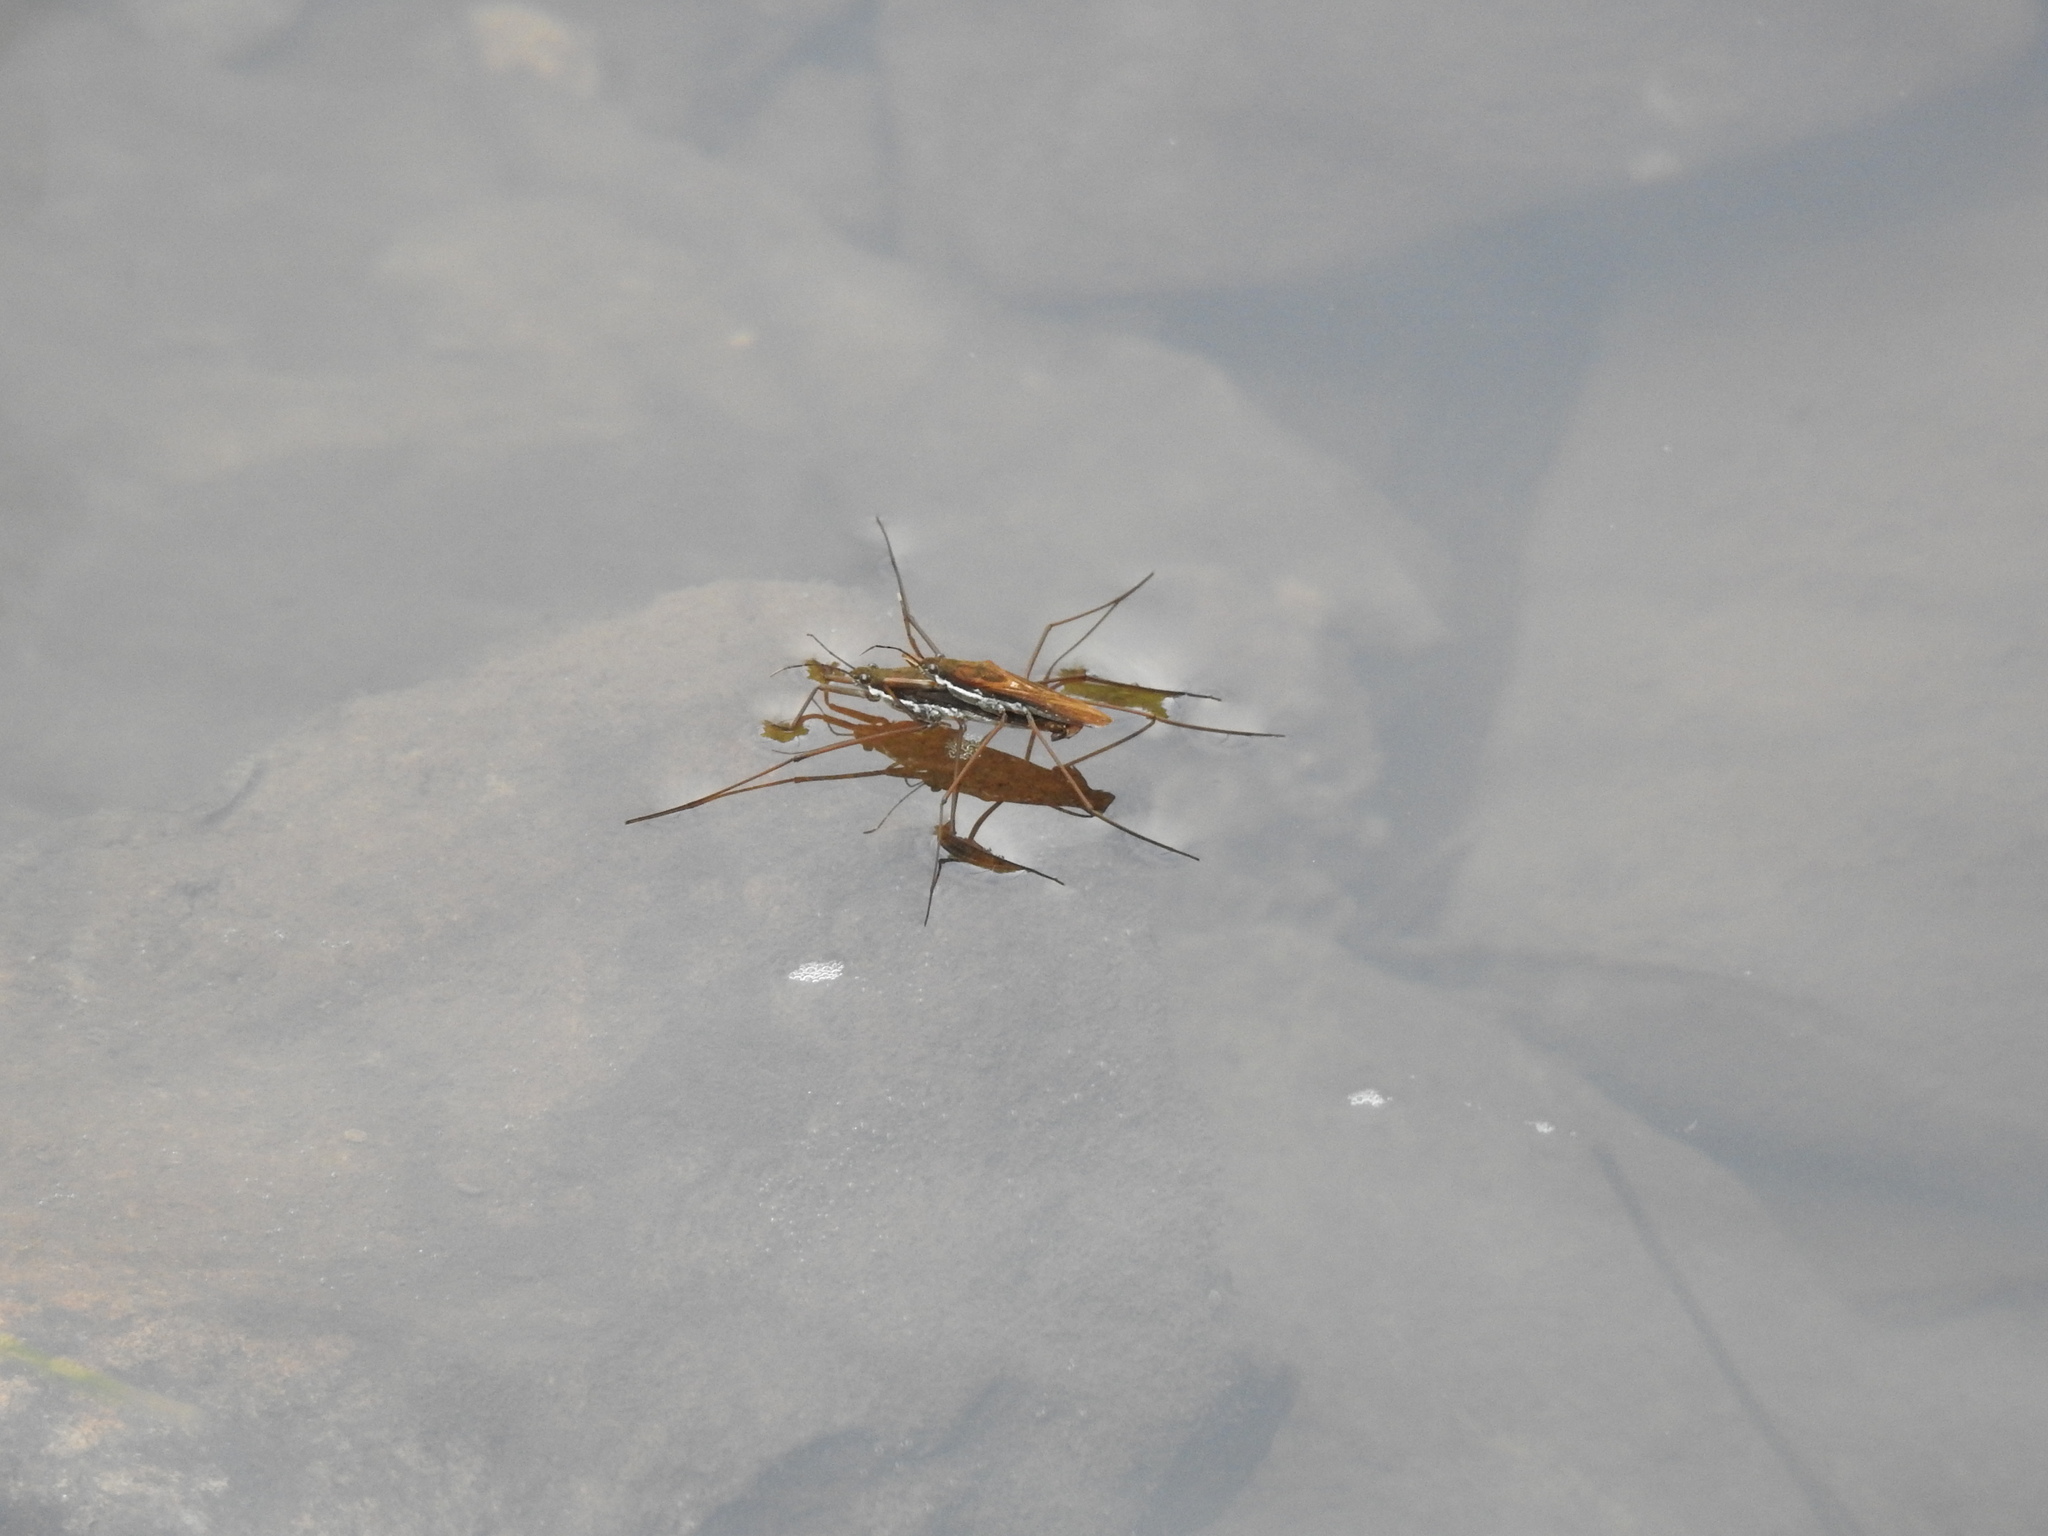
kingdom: Animalia
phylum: Arthropoda
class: Insecta
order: Hemiptera
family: Gerridae
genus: Aquarius
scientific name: Aquarius remigis
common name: Common water strider
